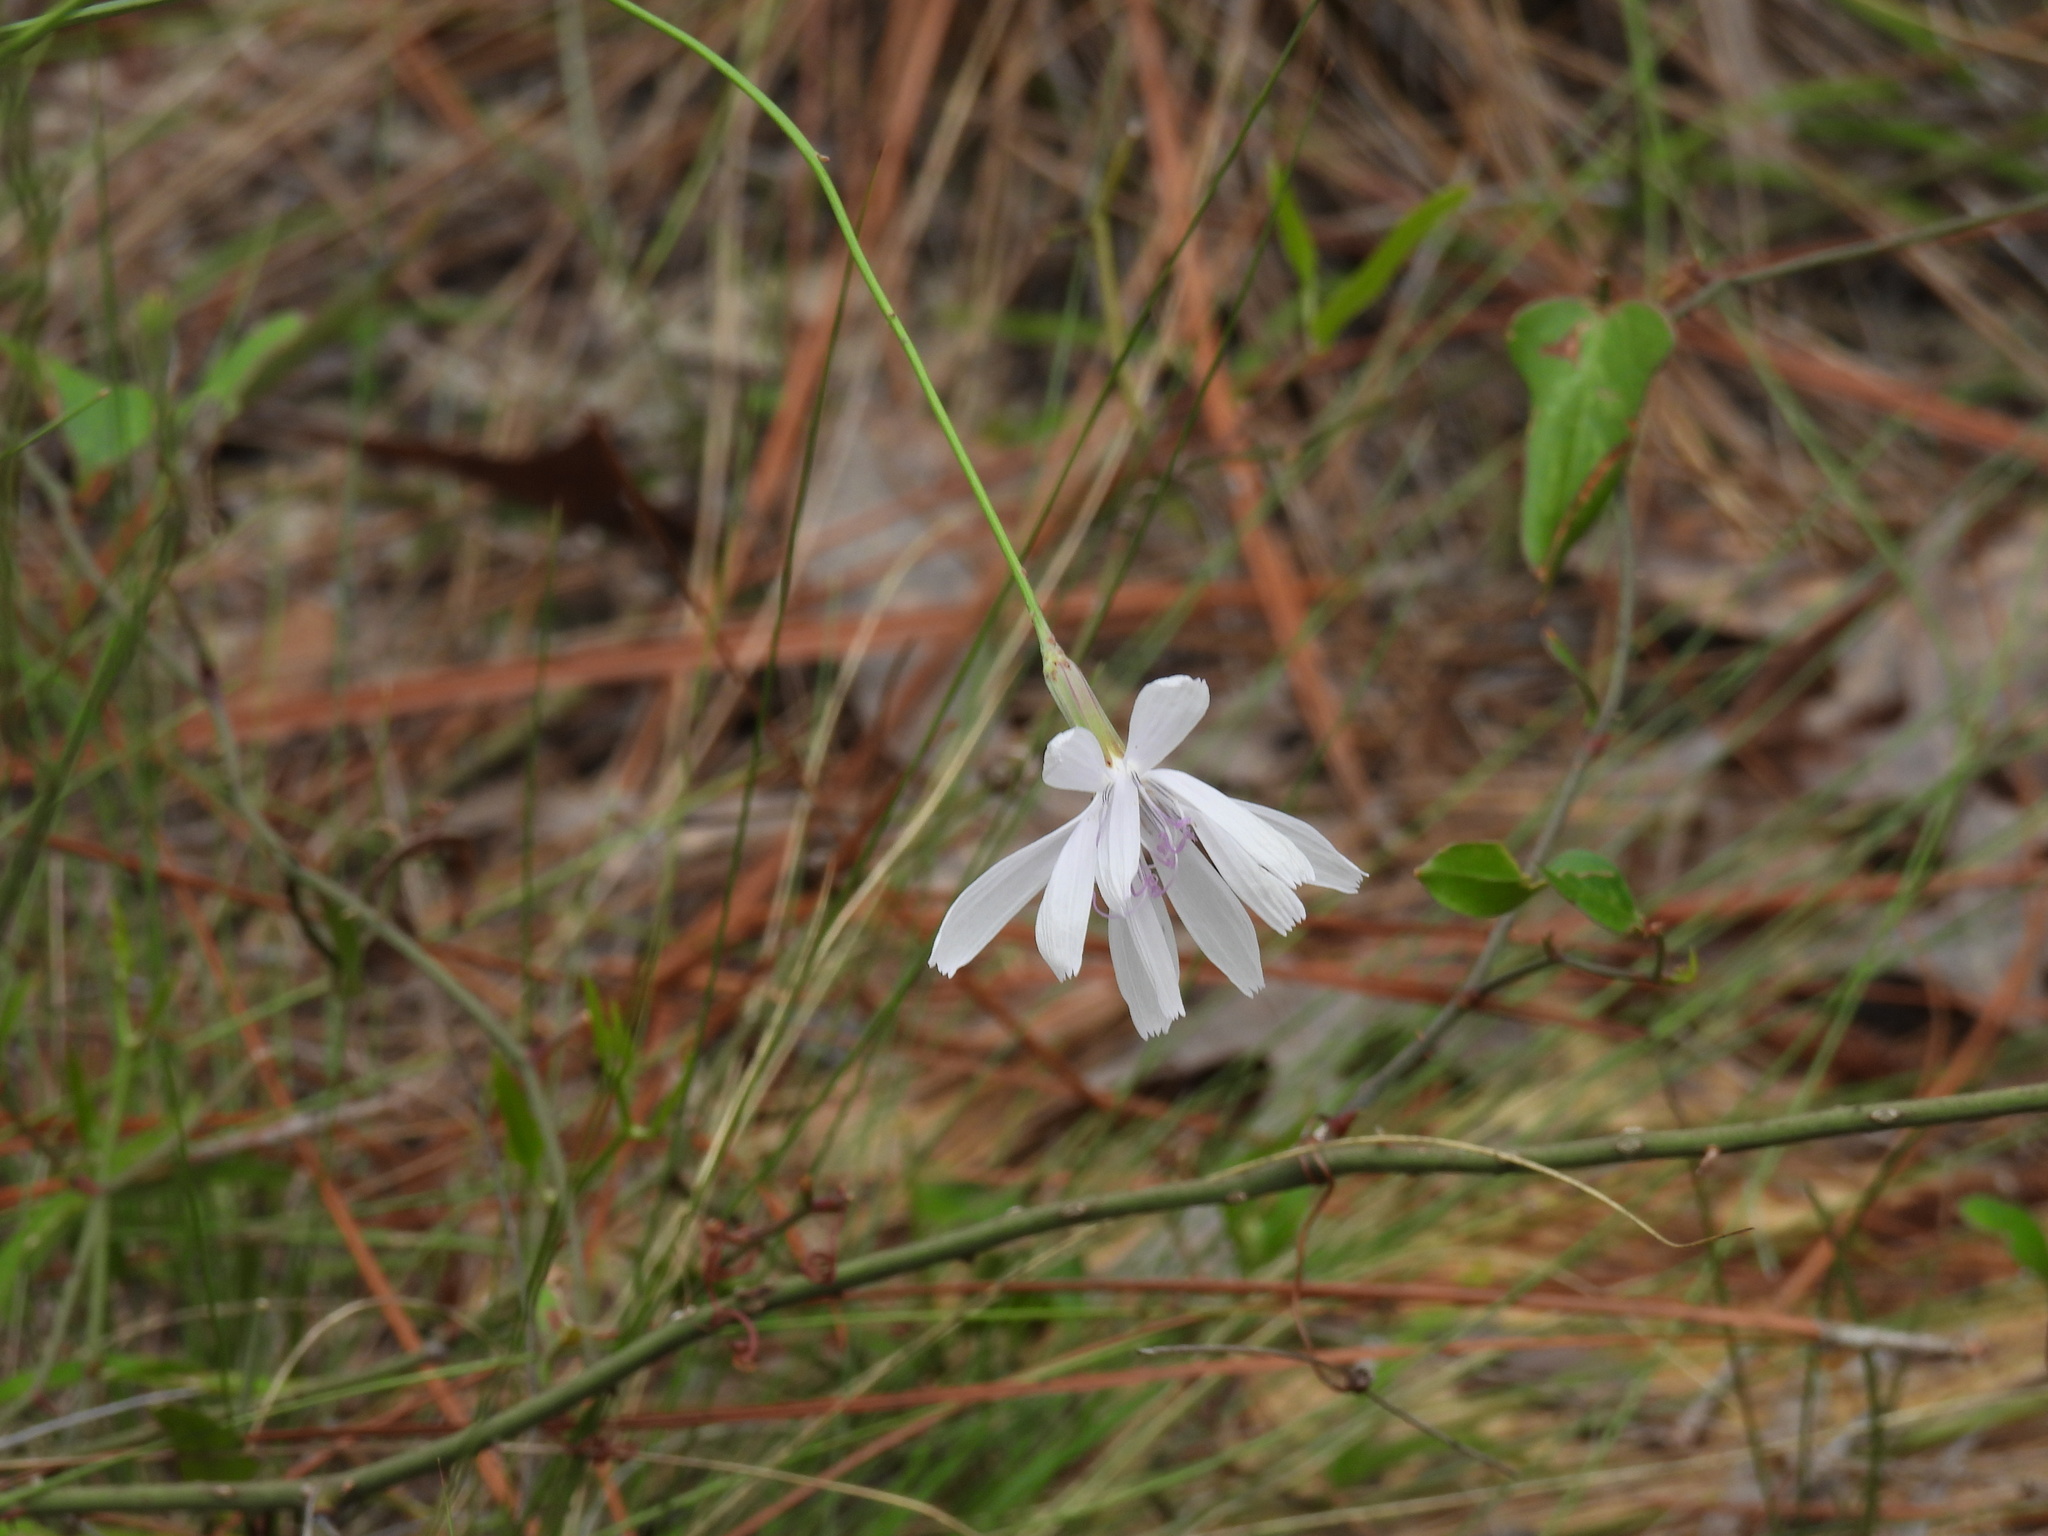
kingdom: Plantae
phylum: Tracheophyta
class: Magnoliopsida
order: Asterales
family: Asteraceae
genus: Lygodesmia
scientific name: Lygodesmia aphylla
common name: Rose-rush
